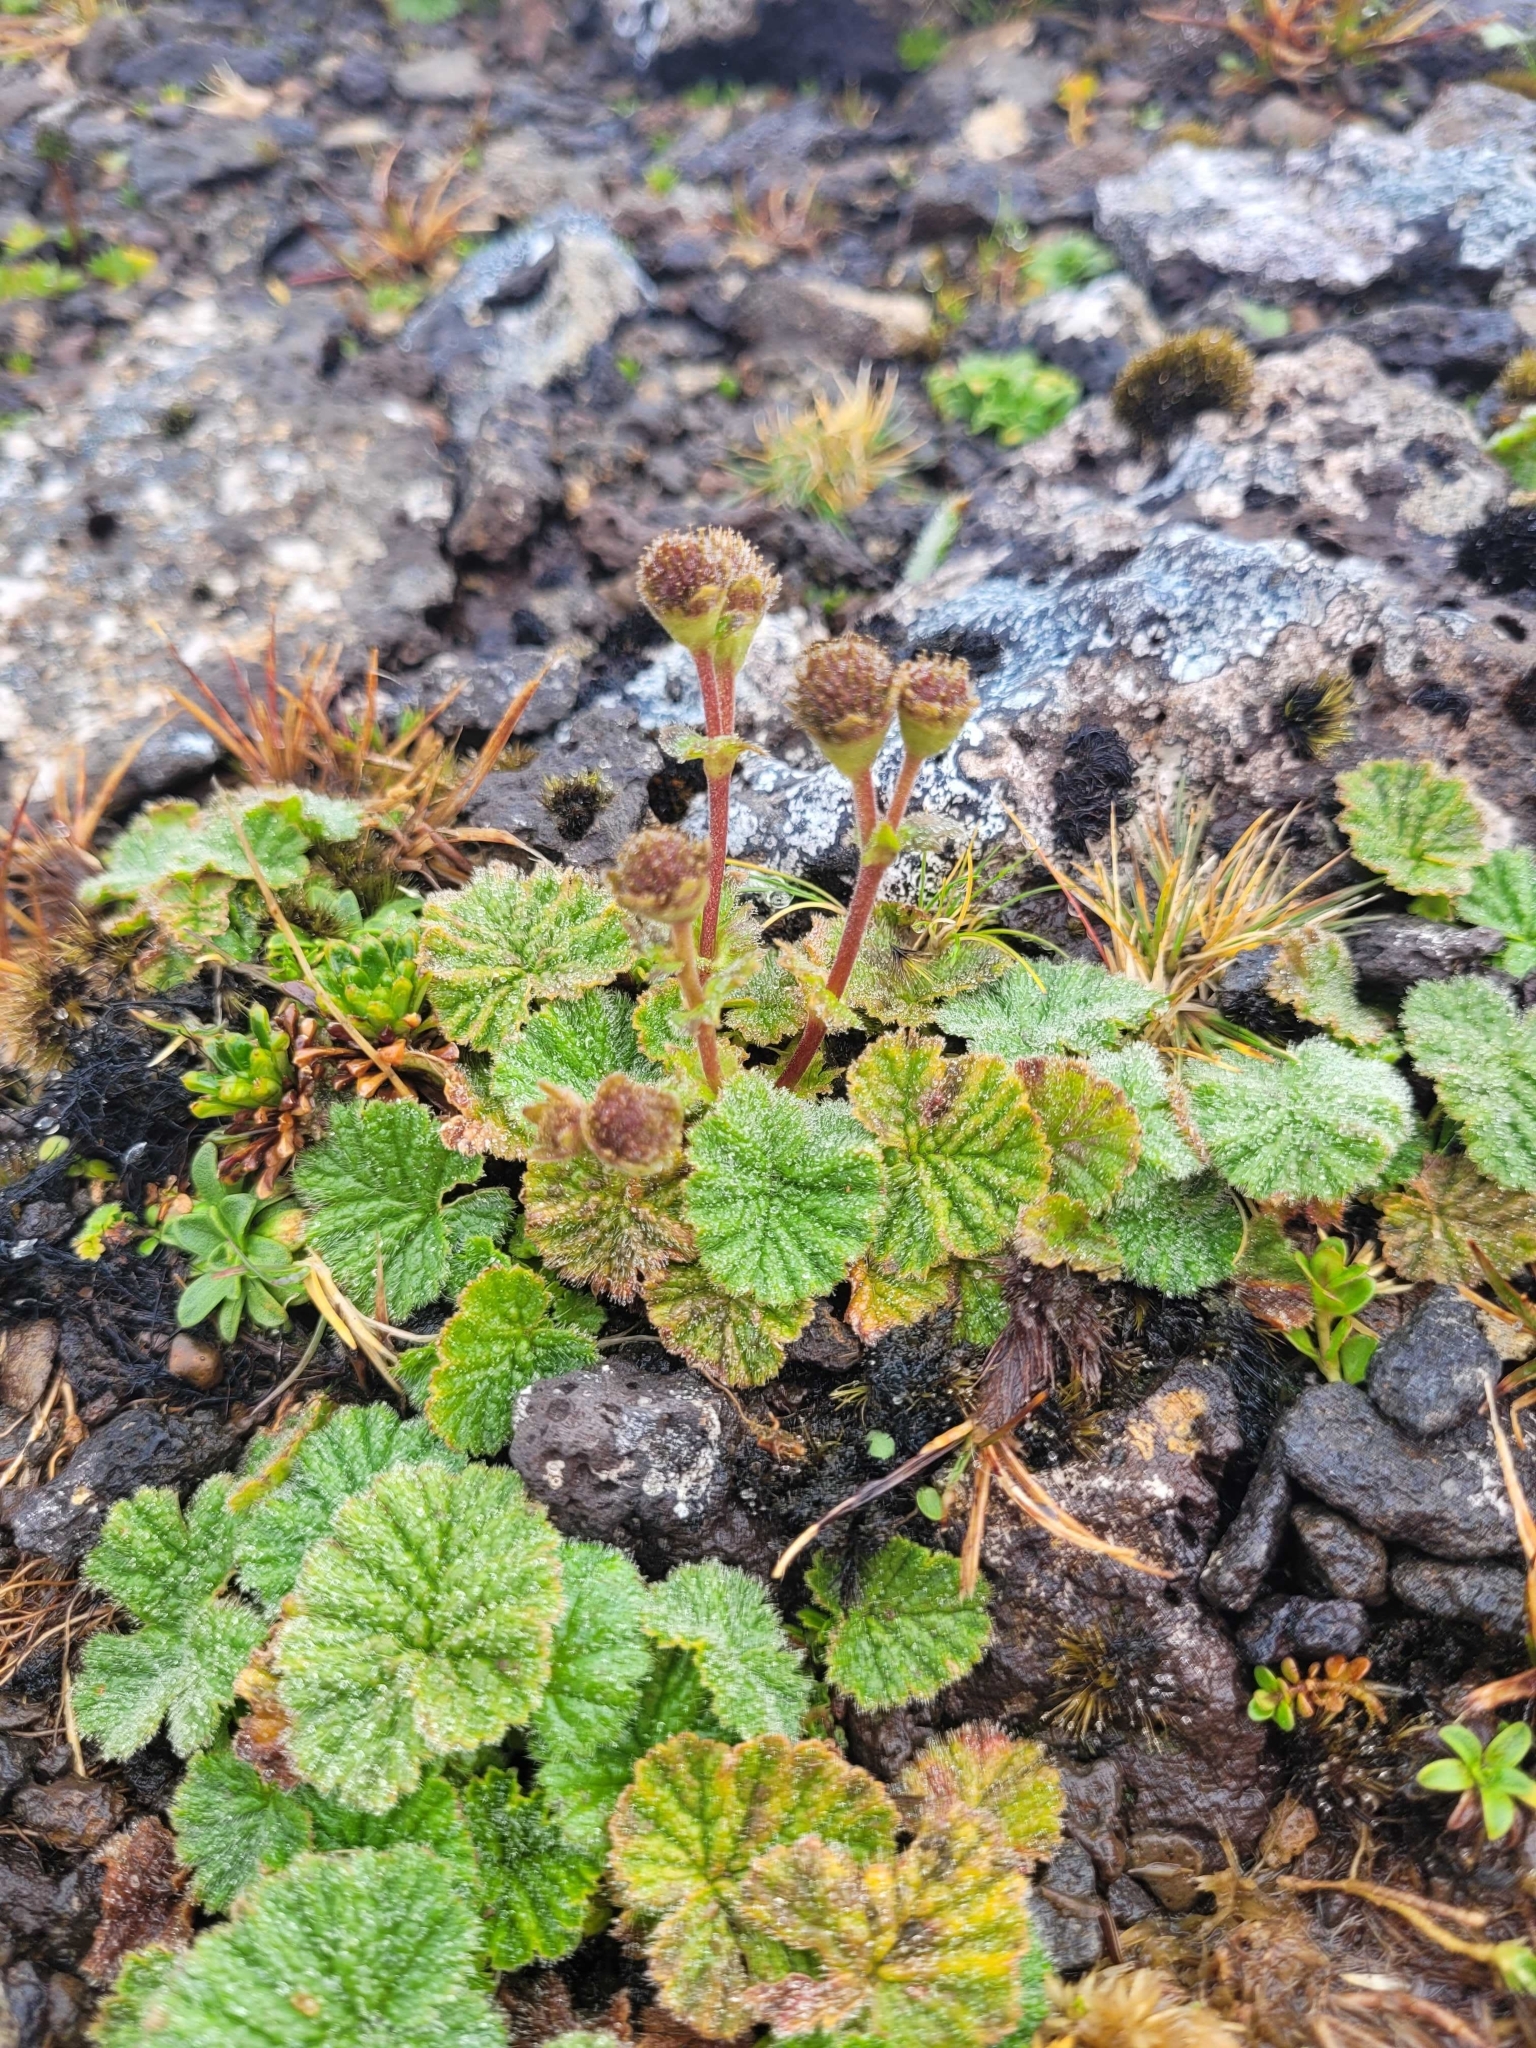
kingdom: Plantae
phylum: Tracheophyta
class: Magnoliopsida
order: Rosales
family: Rosaceae
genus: Geum
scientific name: Geum albiflorum
